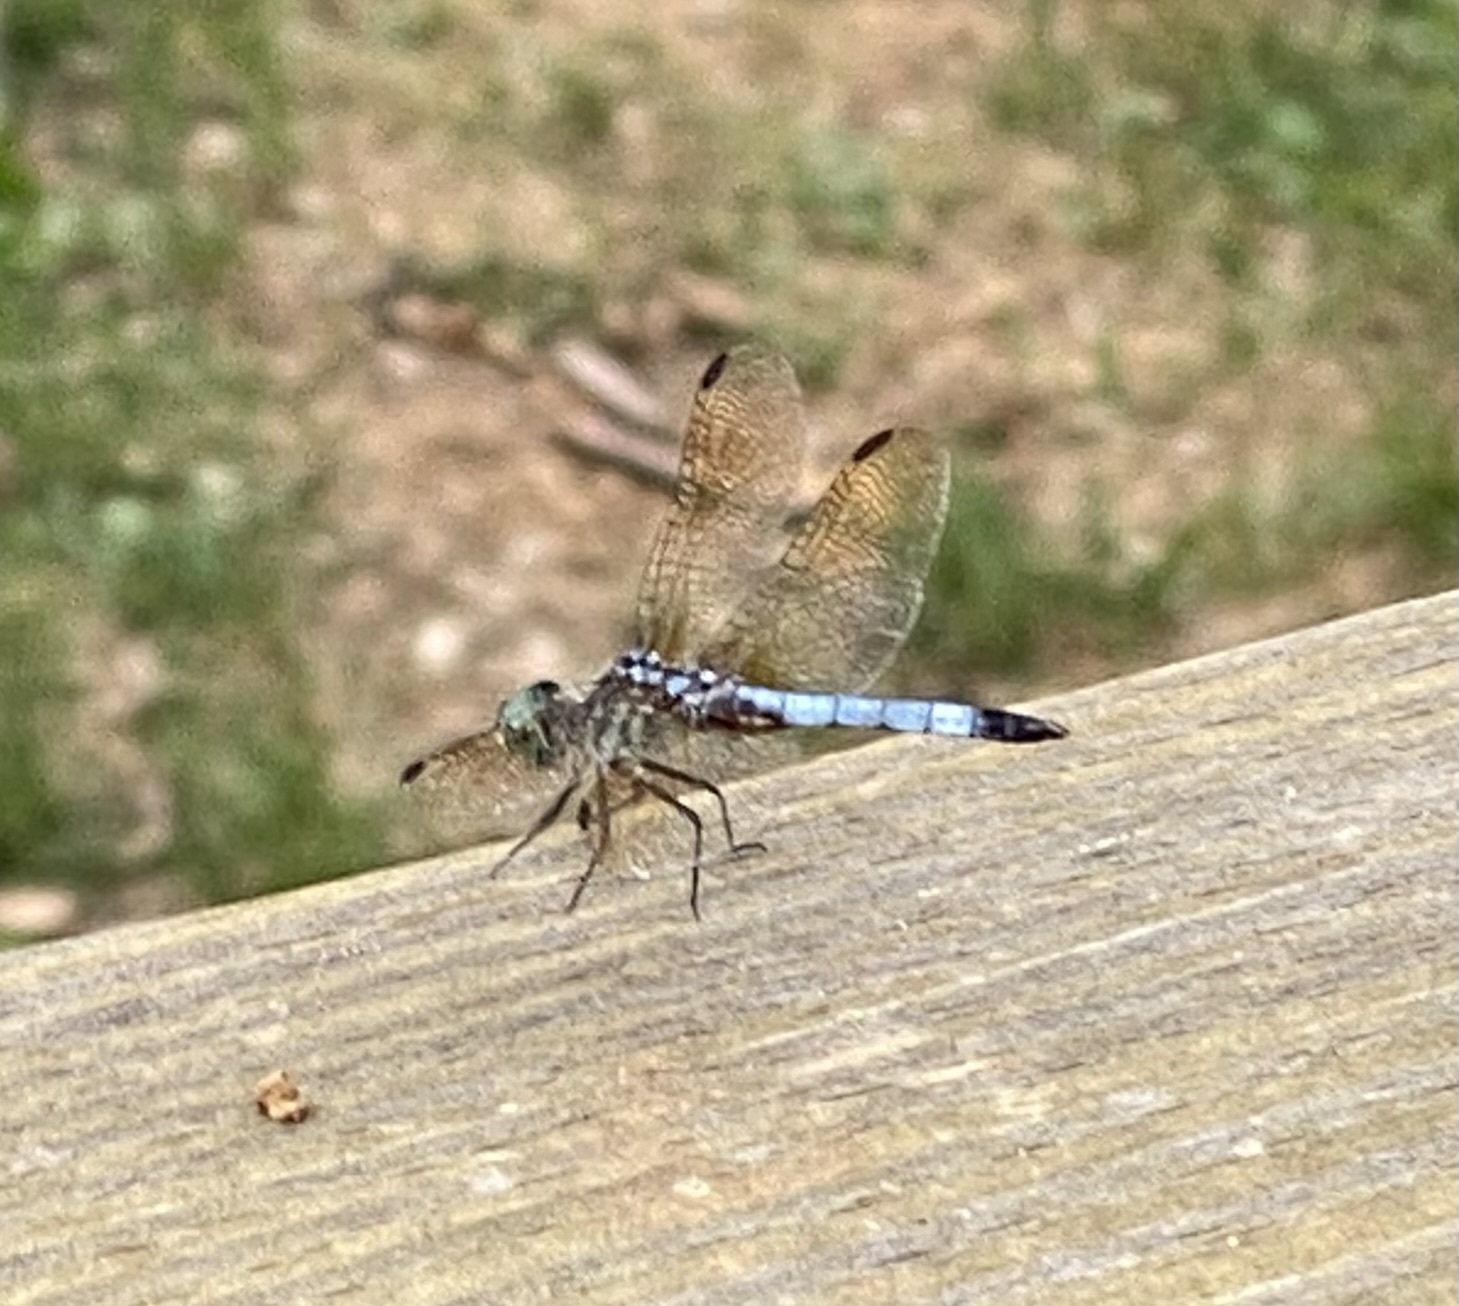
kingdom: Animalia
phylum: Arthropoda
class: Insecta
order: Odonata
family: Libellulidae
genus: Pachydiplax
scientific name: Pachydiplax longipennis
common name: Blue dasher
